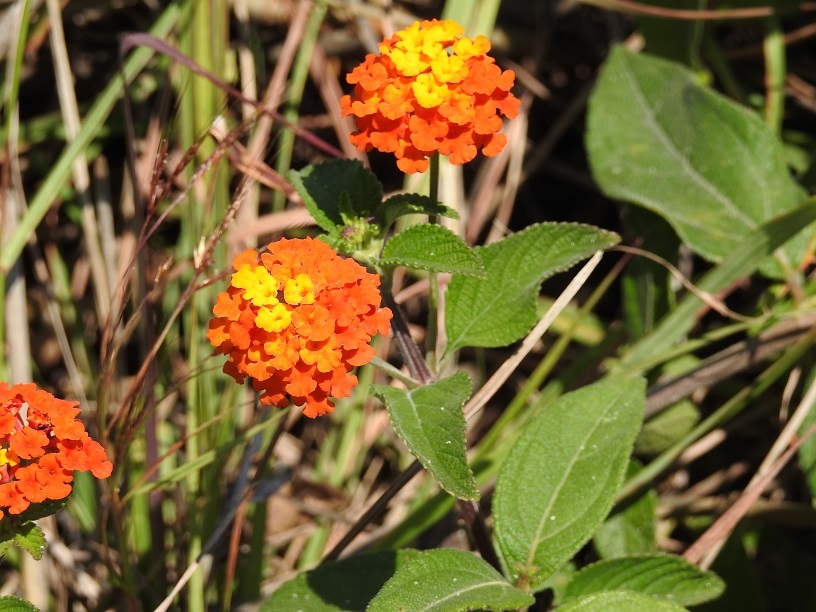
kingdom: Plantae
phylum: Tracheophyta
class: Magnoliopsida
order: Lamiales
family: Verbenaceae
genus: Lantana
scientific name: Lantana camara
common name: Lantana
